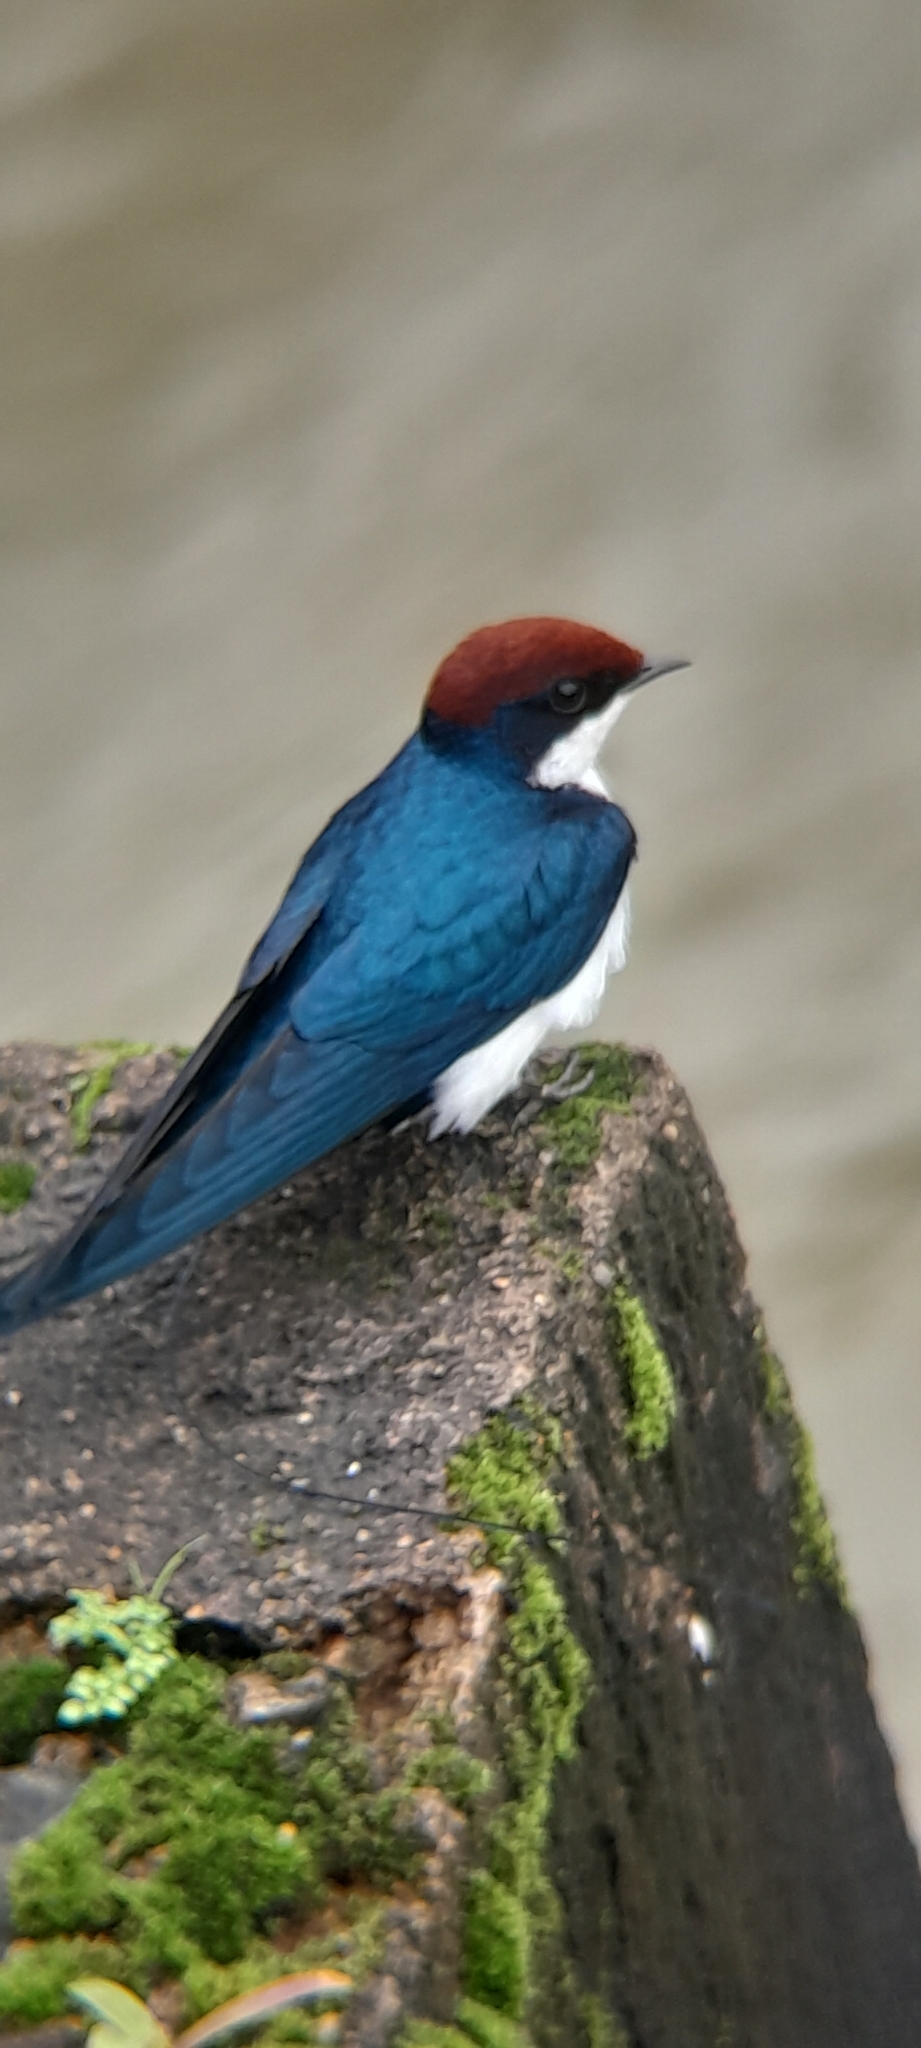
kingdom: Animalia
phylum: Chordata
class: Aves
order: Passeriformes
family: Hirundinidae
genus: Hirundo
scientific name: Hirundo smithii
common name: Wire-tailed swallow
